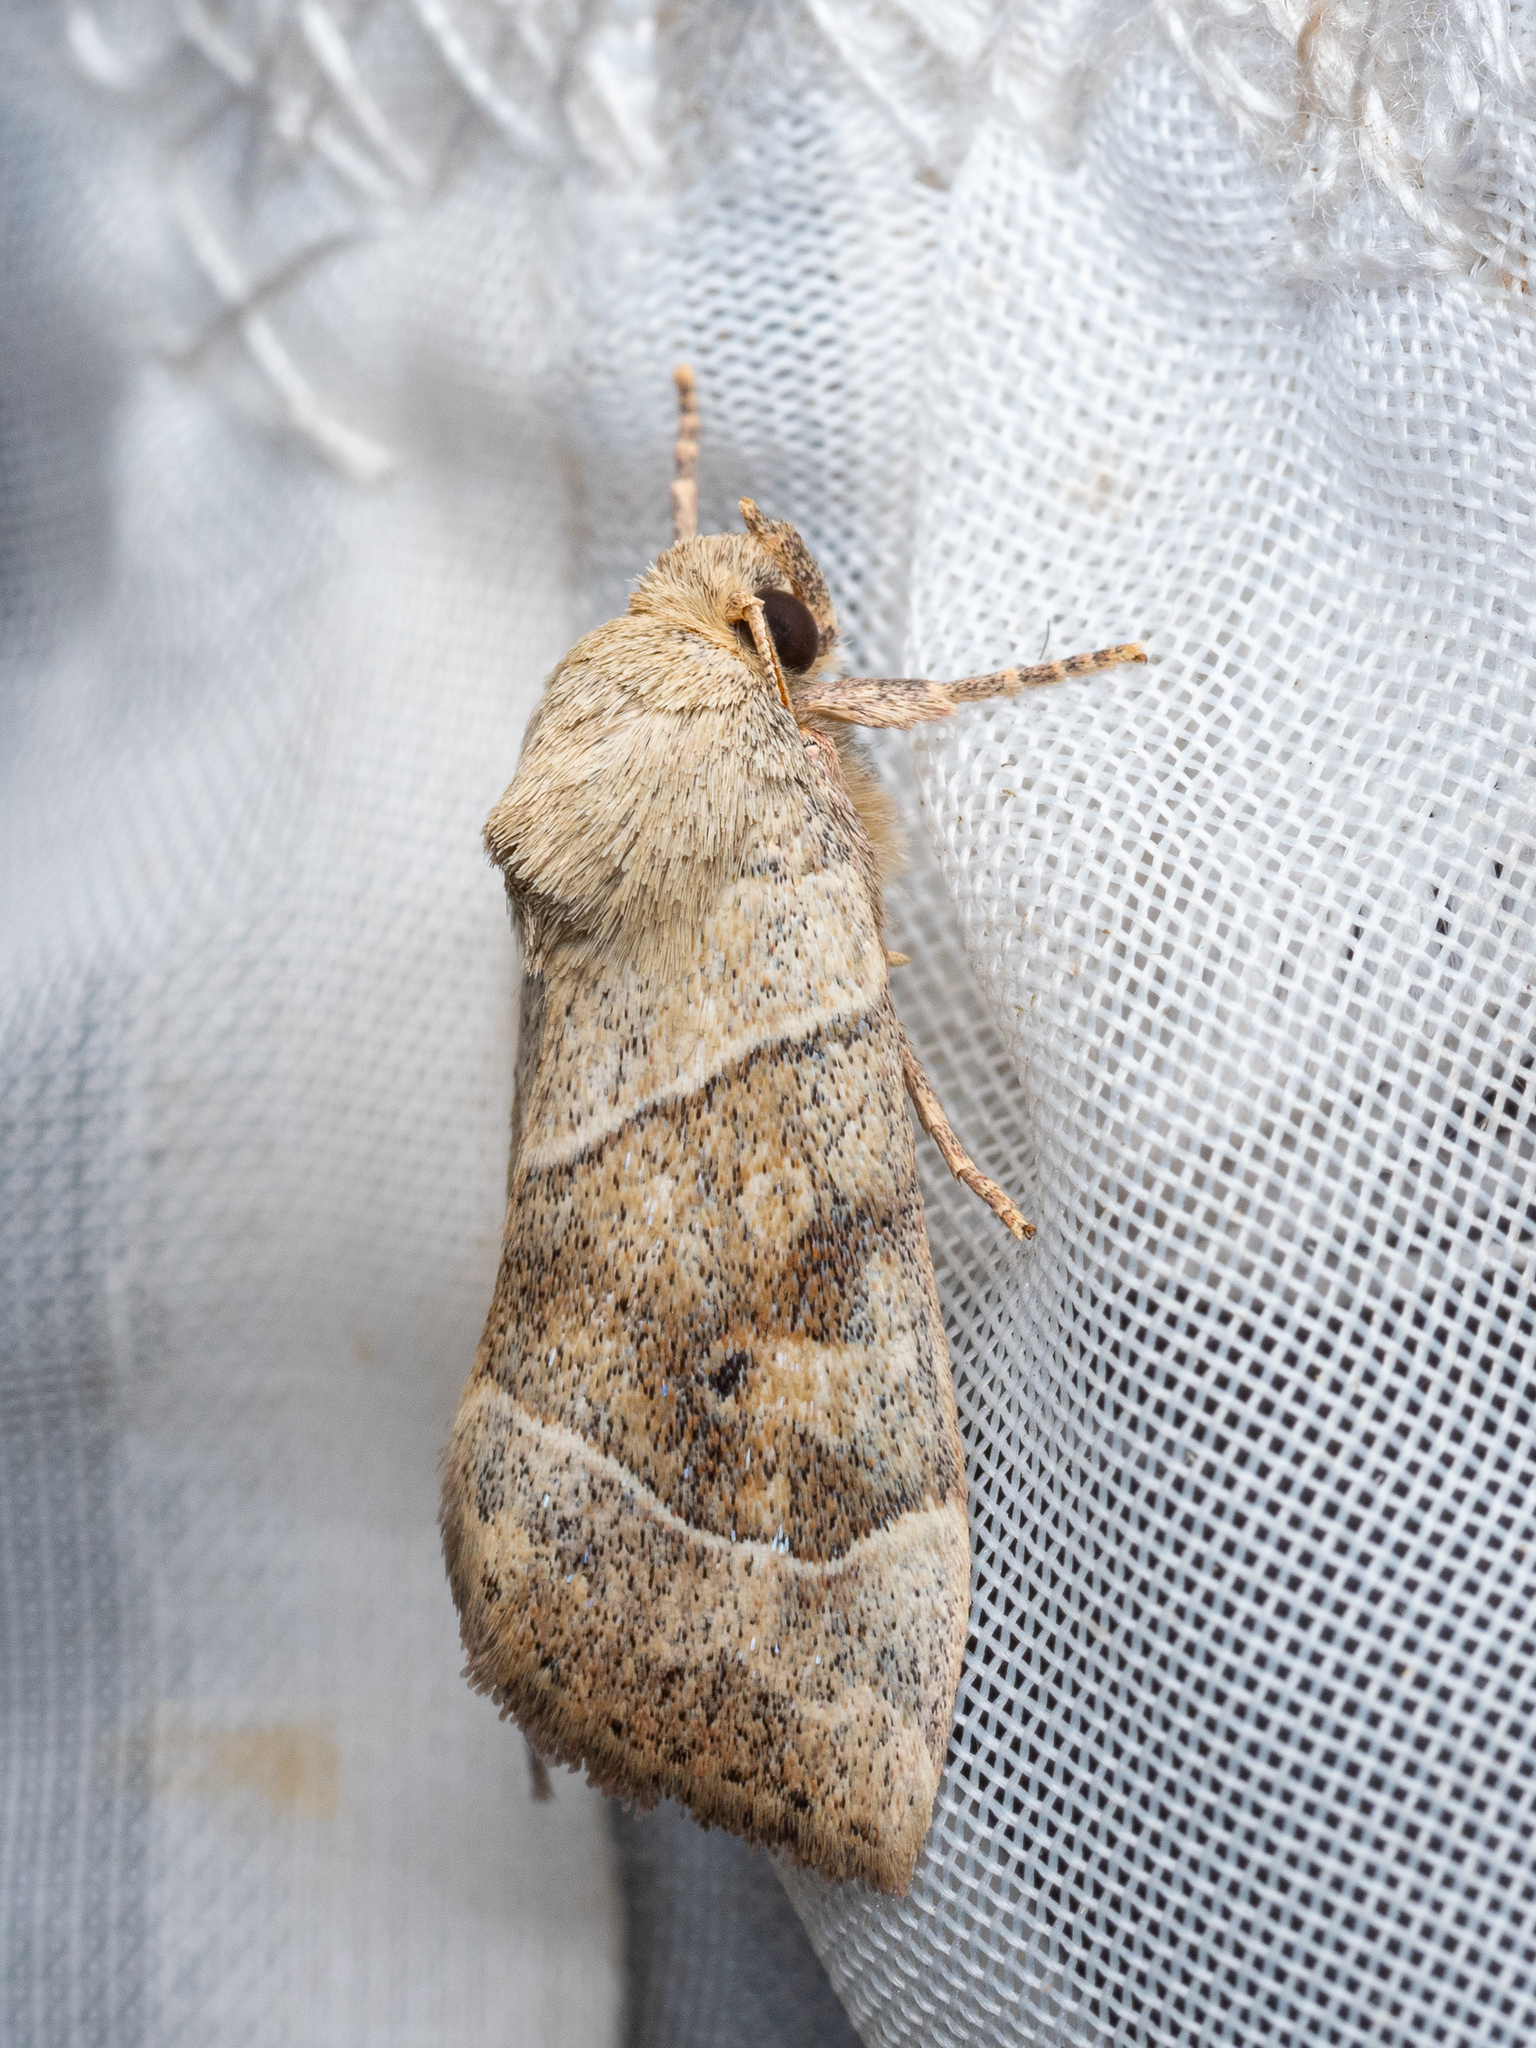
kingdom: Animalia
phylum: Arthropoda
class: Insecta
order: Lepidoptera
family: Noctuidae
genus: Cosmia
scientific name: Cosmia trapezina
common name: Dun-bar
